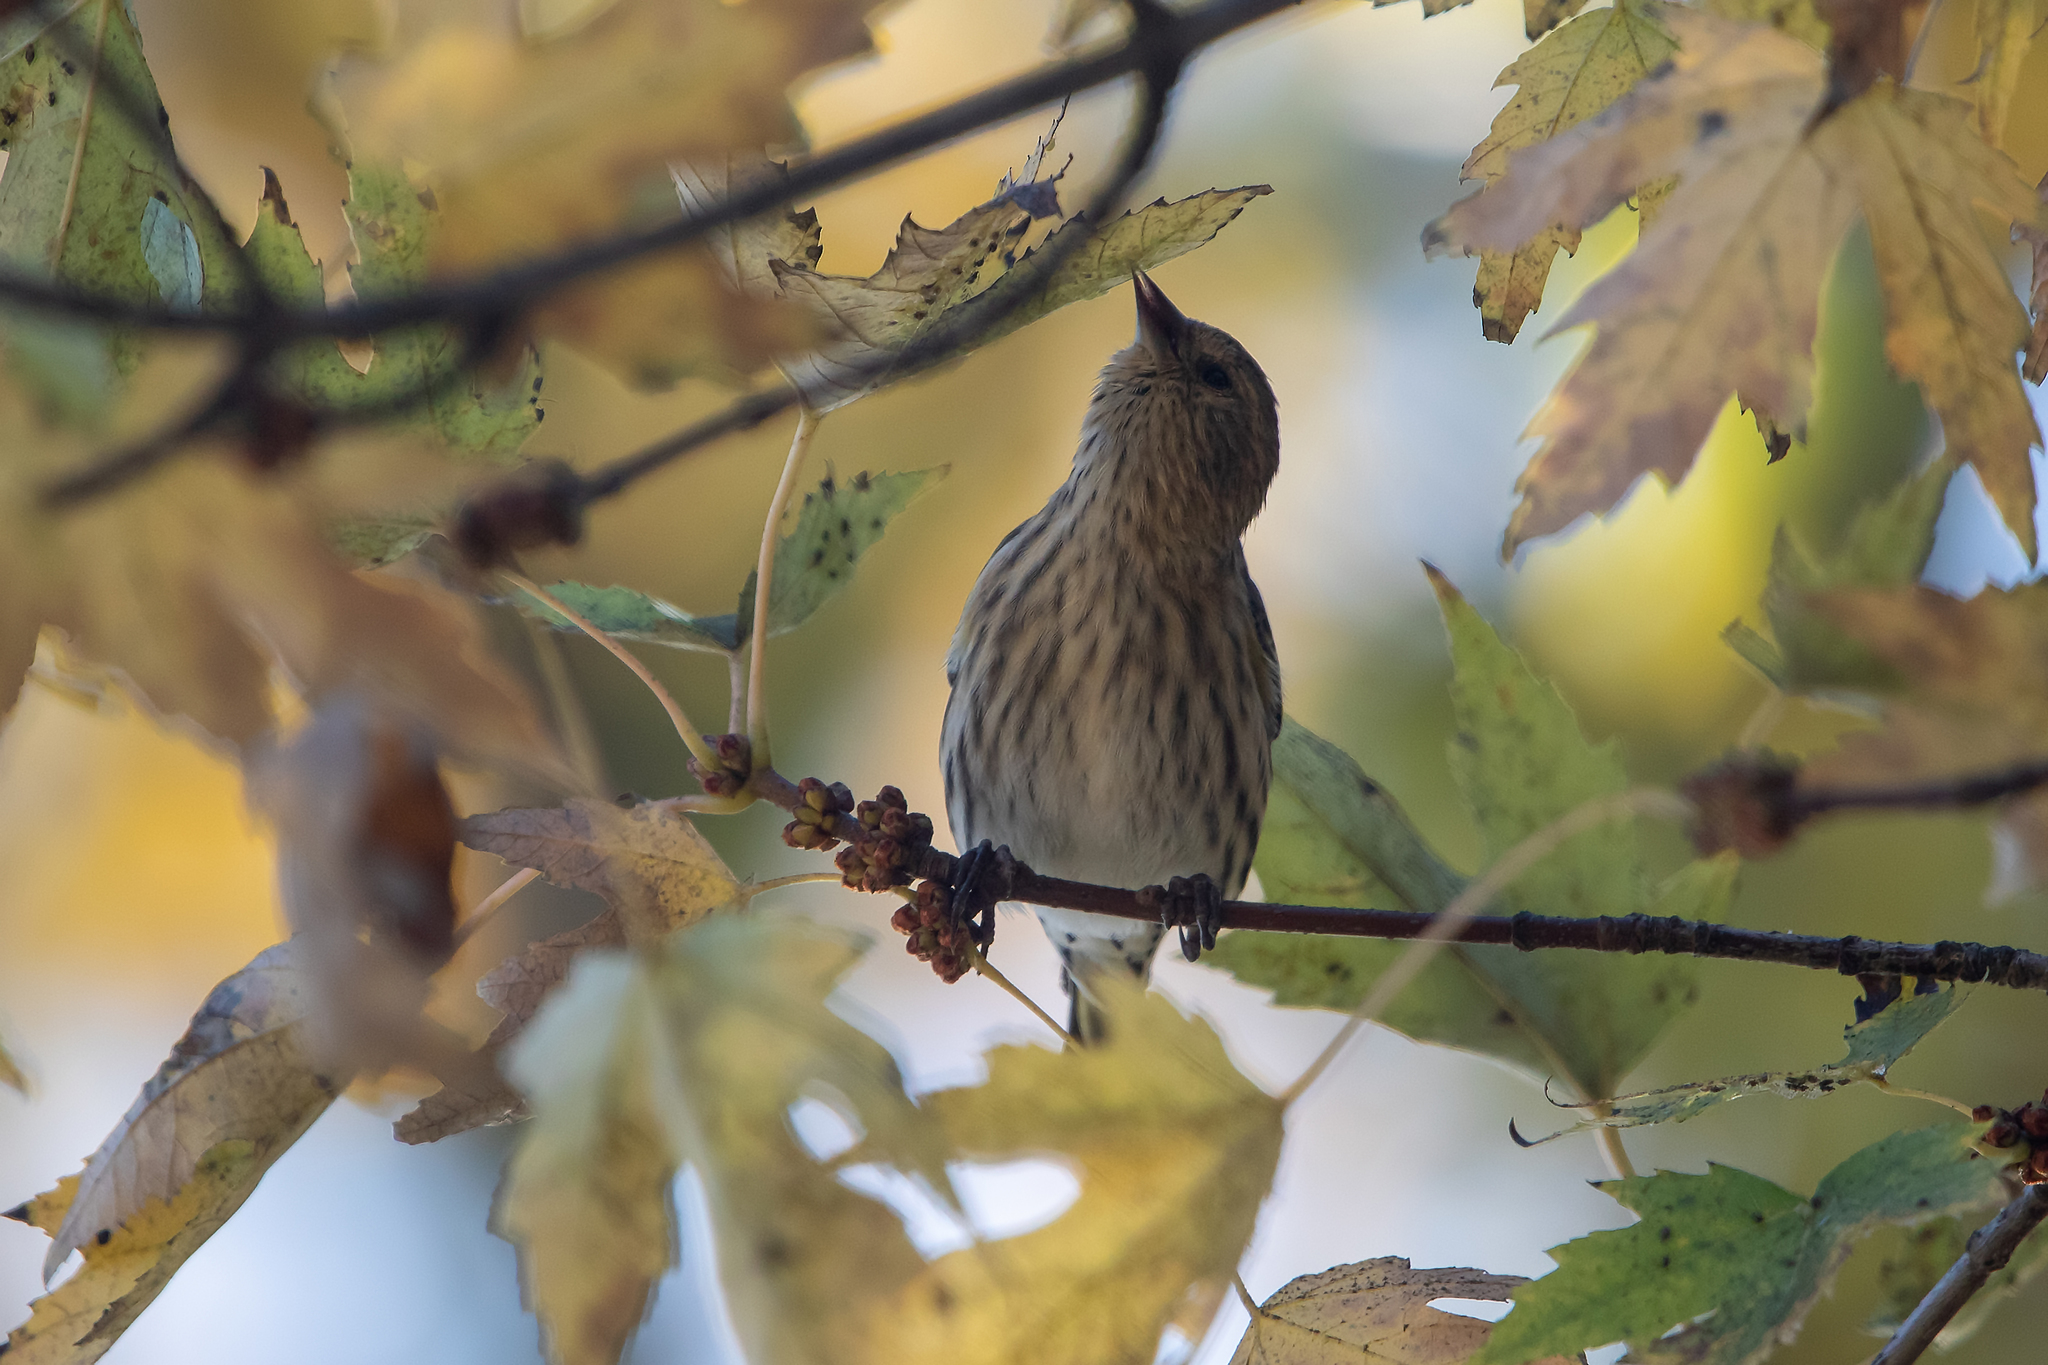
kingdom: Animalia
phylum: Chordata
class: Aves
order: Passeriformes
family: Fringillidae
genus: Spinus
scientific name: Spinus pinus
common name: Pine siskin
